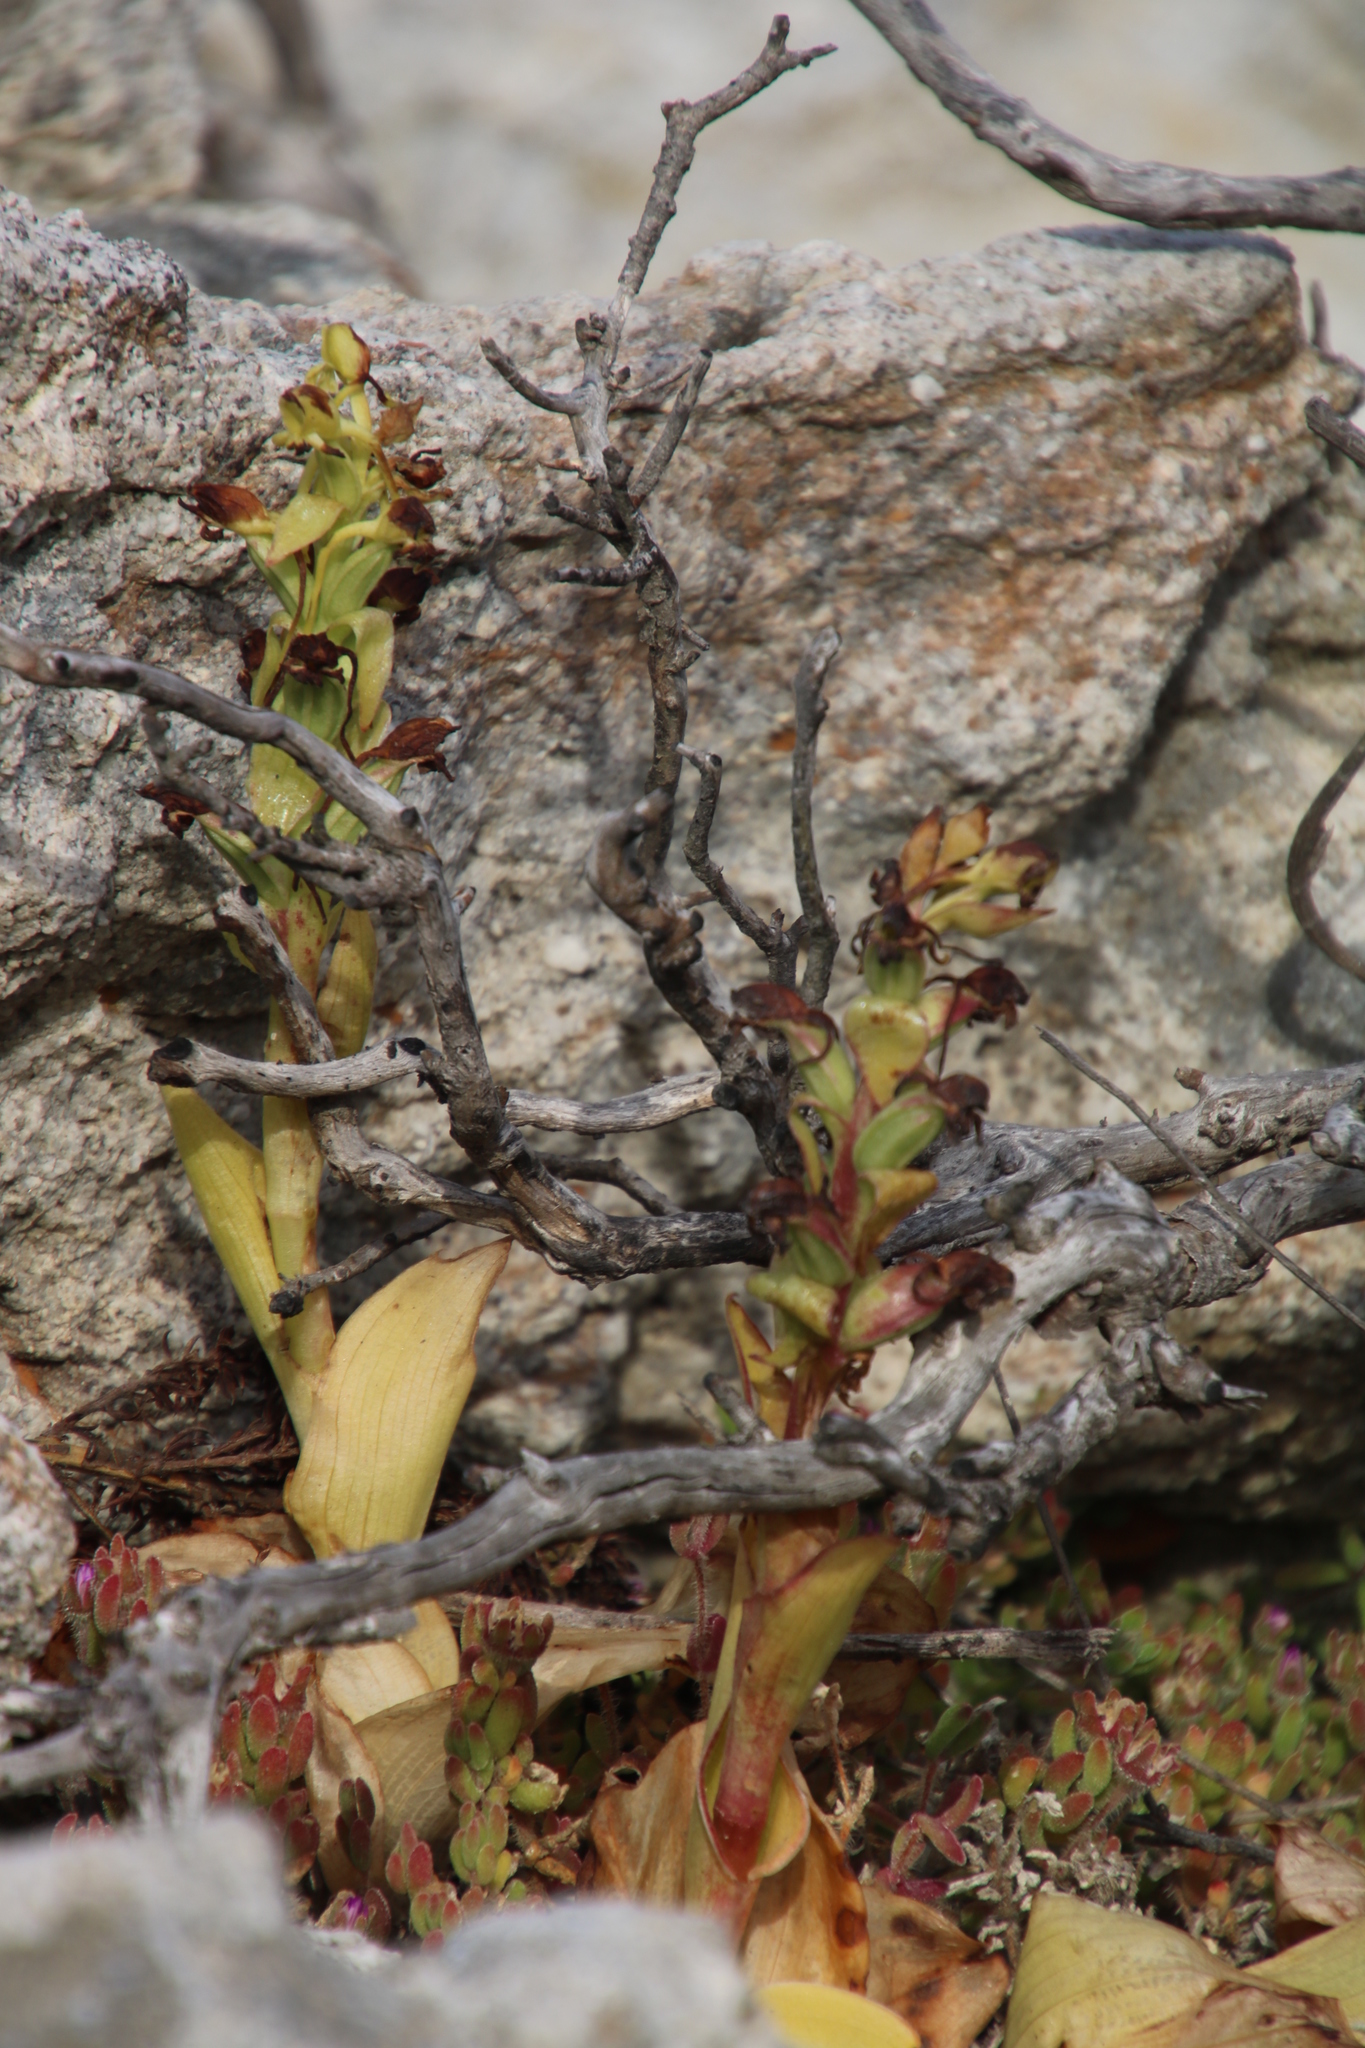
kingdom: Plantae
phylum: Tracheophyta
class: Liliopsida
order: Asparagales
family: Orchidaceae
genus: Satyrium
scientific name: Satyrium odorum
